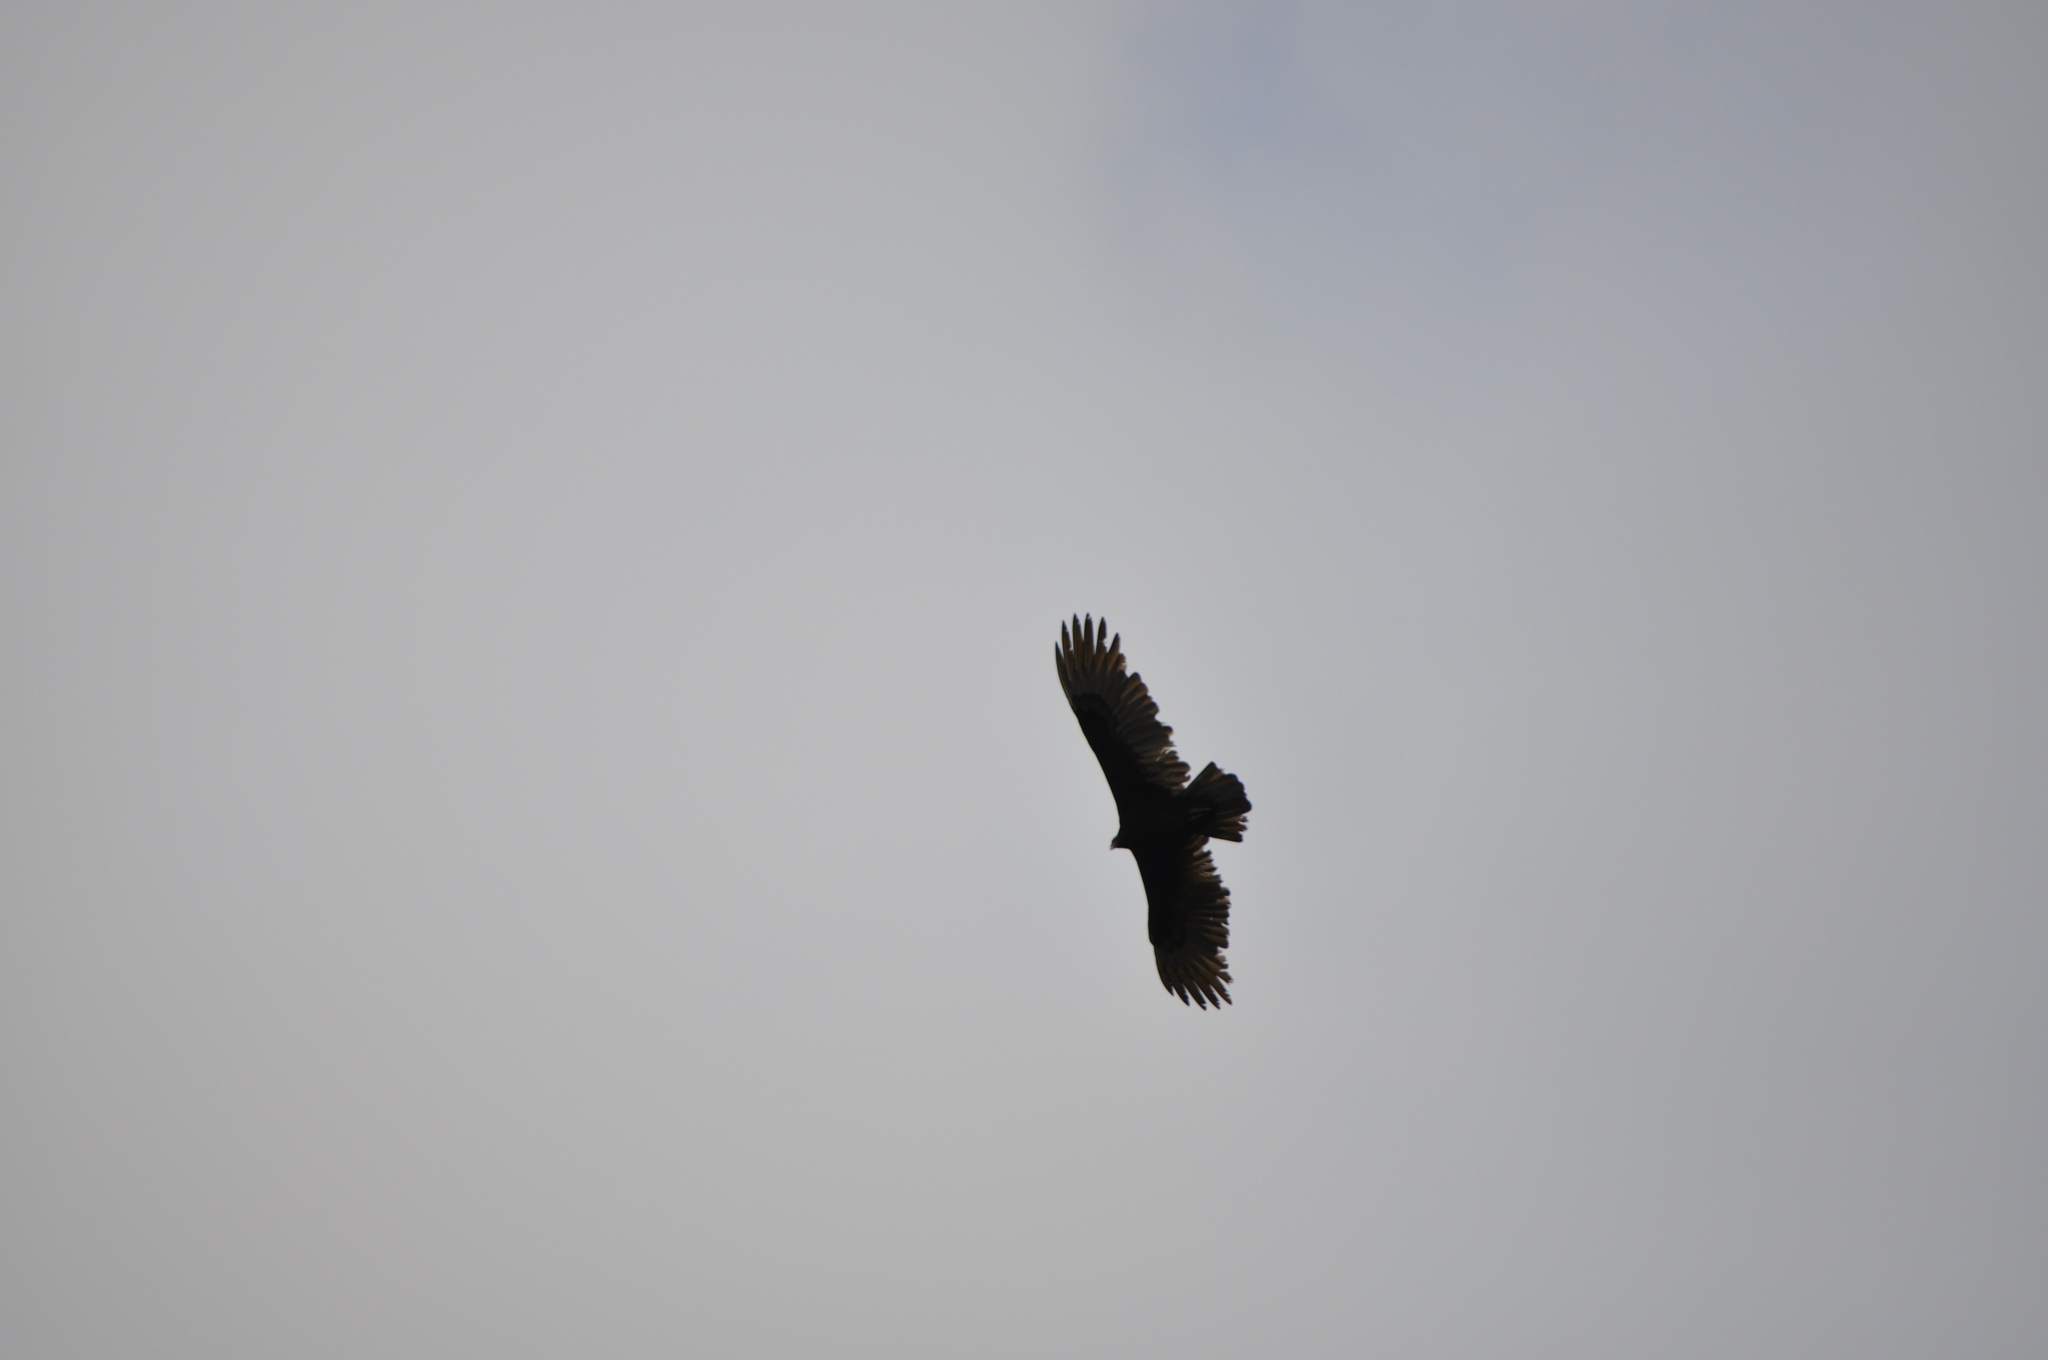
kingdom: Animalia
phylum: Chordata
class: Aves
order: Accipitriformes
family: Cathartidae
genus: Cathartes
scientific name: Cathartes aura
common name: Turkey vulture
